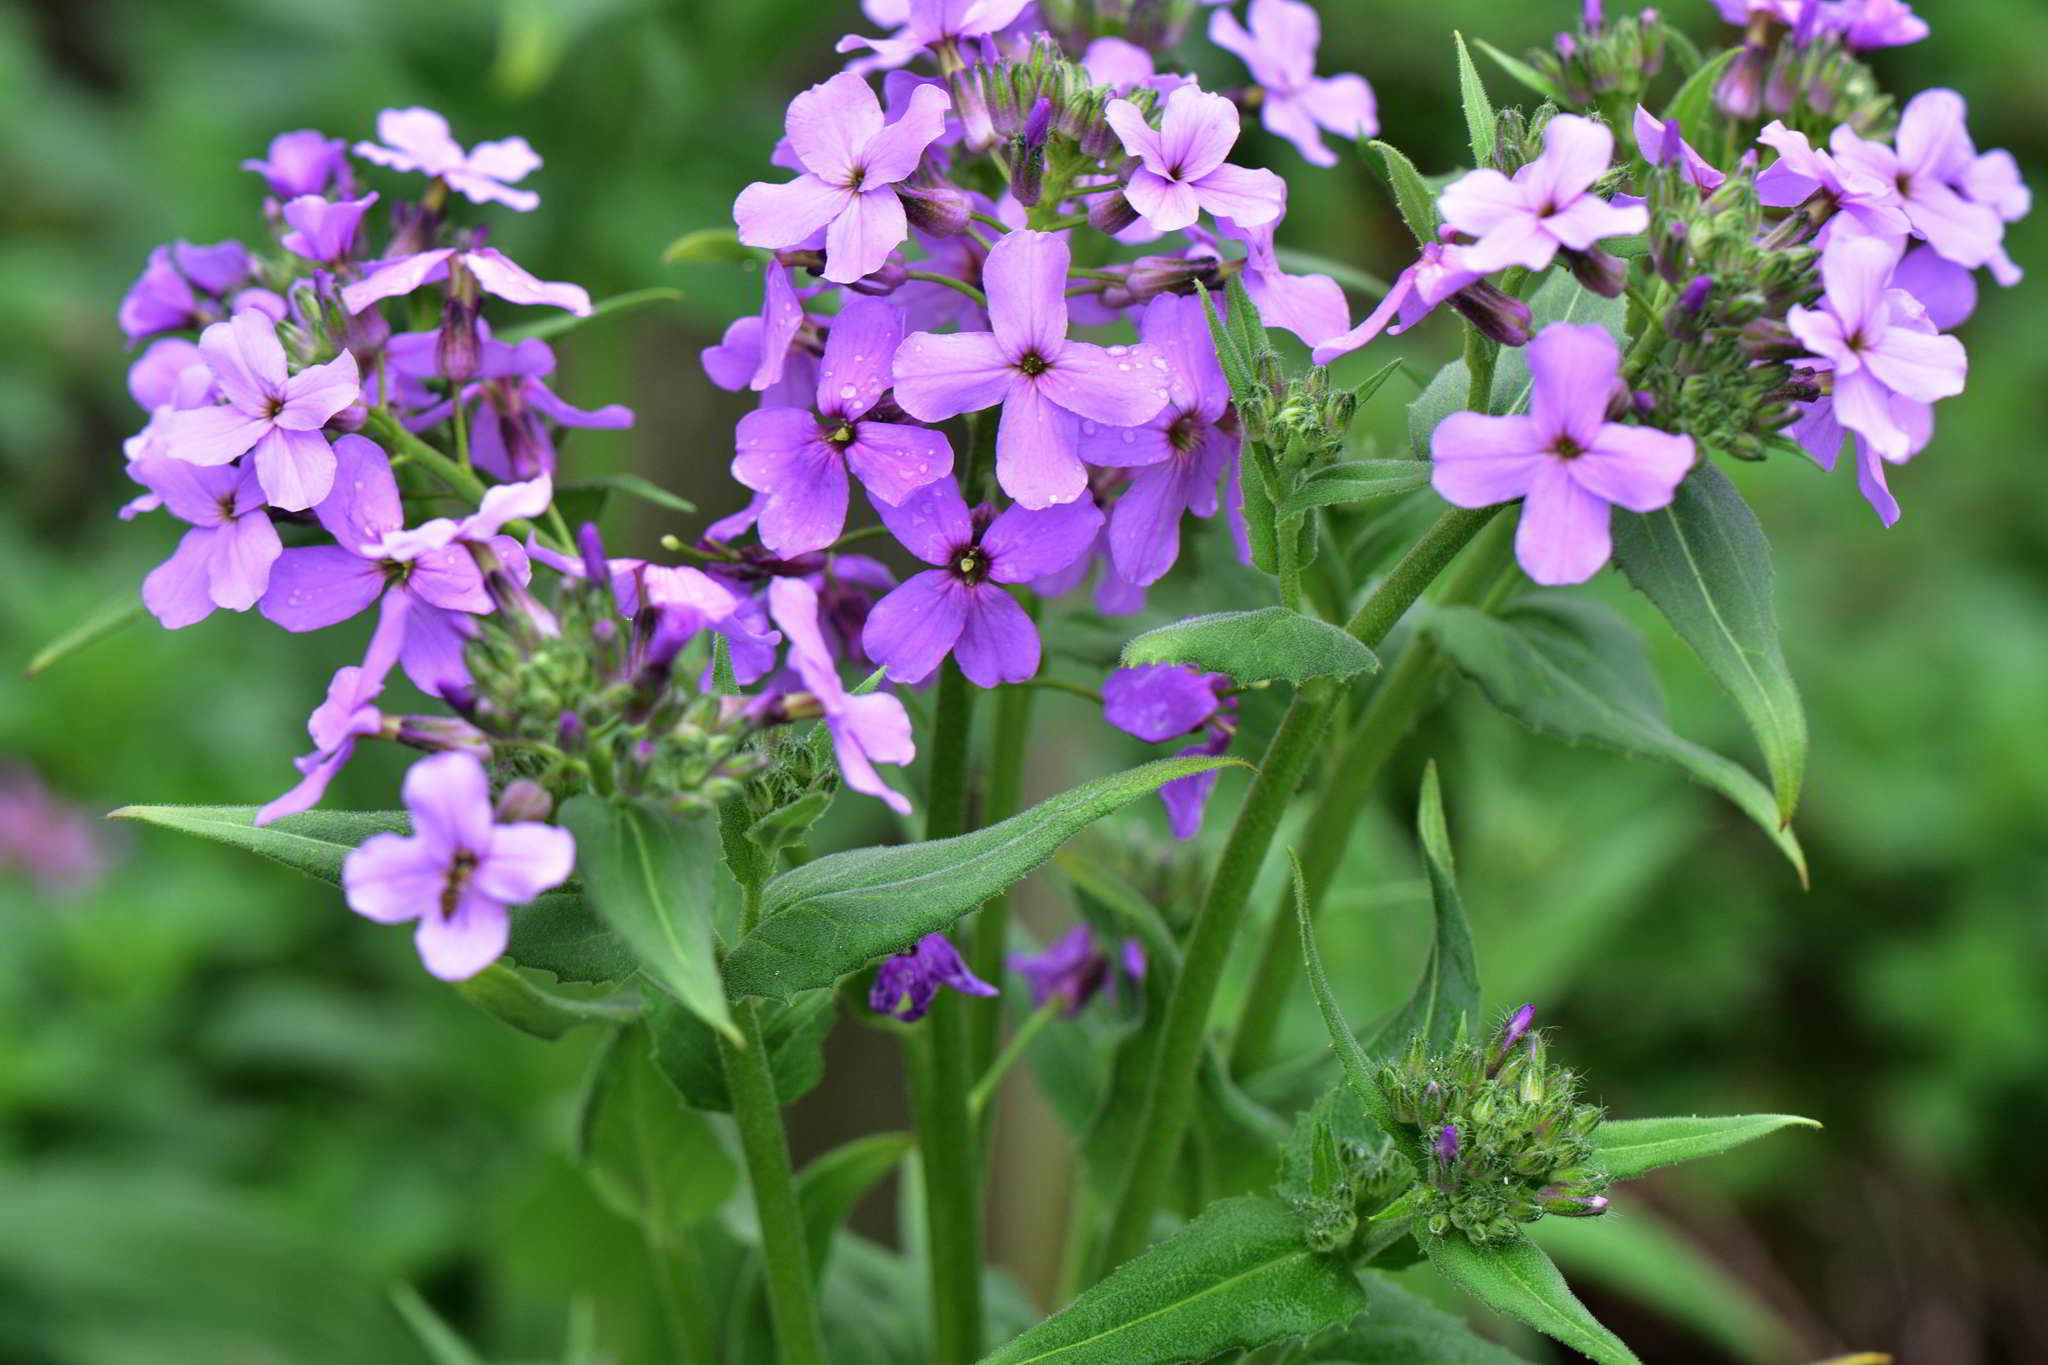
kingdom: Plantae
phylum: Tracheophyta
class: Magnoliopsida
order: Brassicales
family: Brassicaceae
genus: Hesperis
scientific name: Hesperis matronalis
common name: Dame's-violet
